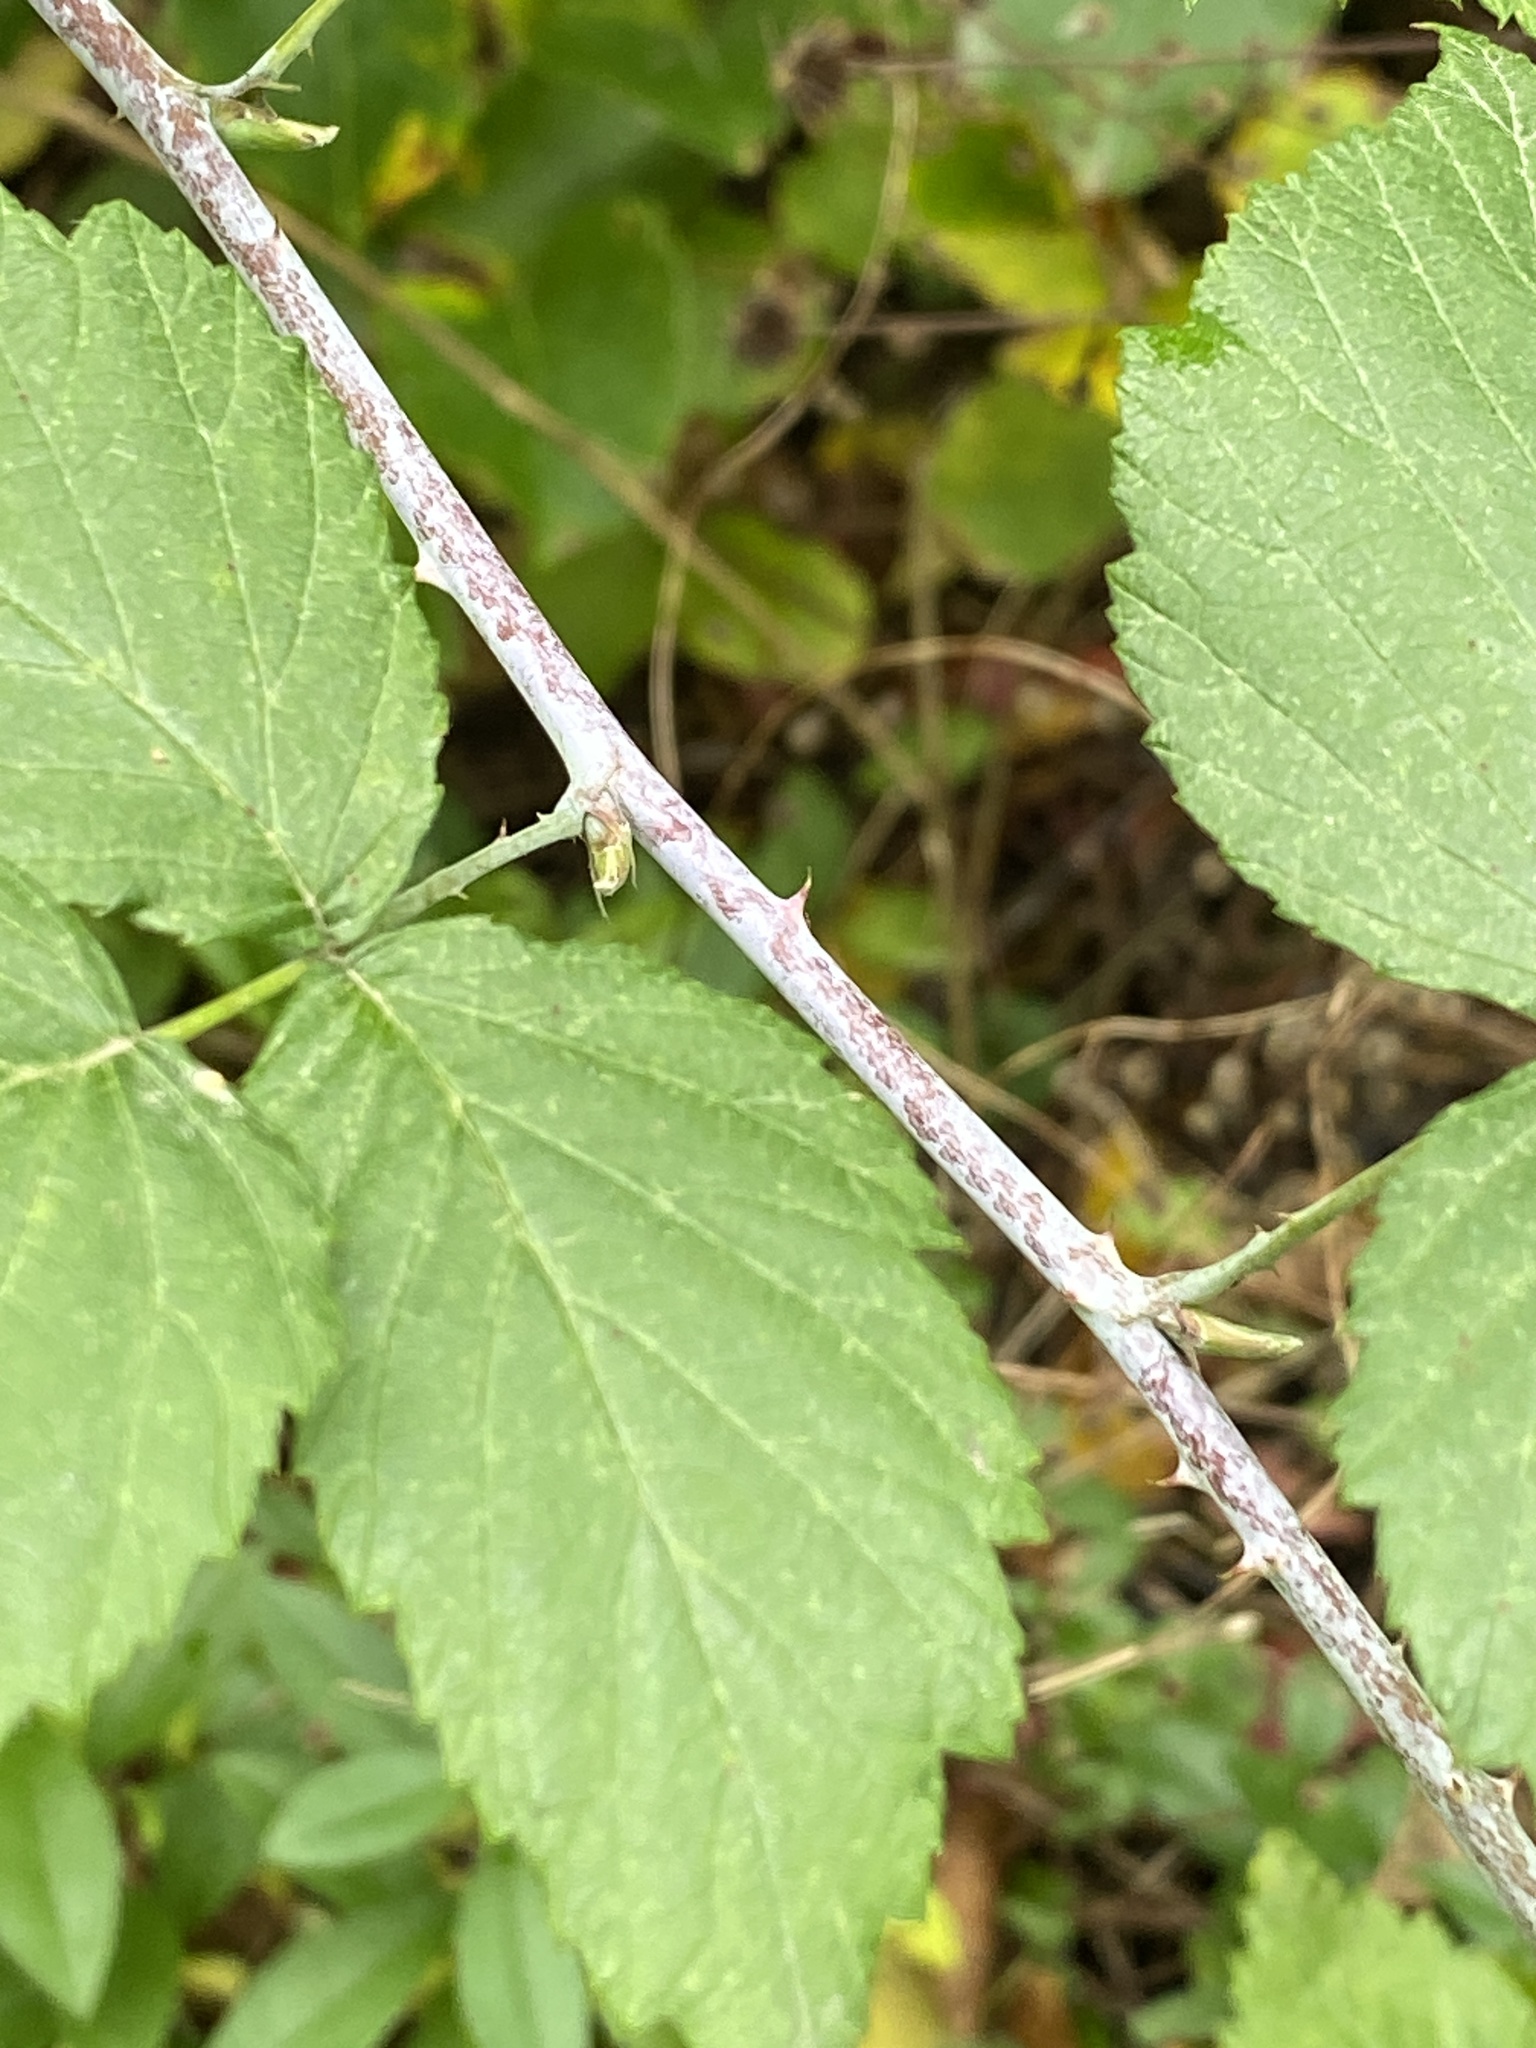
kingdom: Plantae
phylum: Tracheophyta
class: Magnoliopsida
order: Rosales
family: Rosaceae
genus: Rubus
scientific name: Rubus occidentalis
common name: Black raspberry
